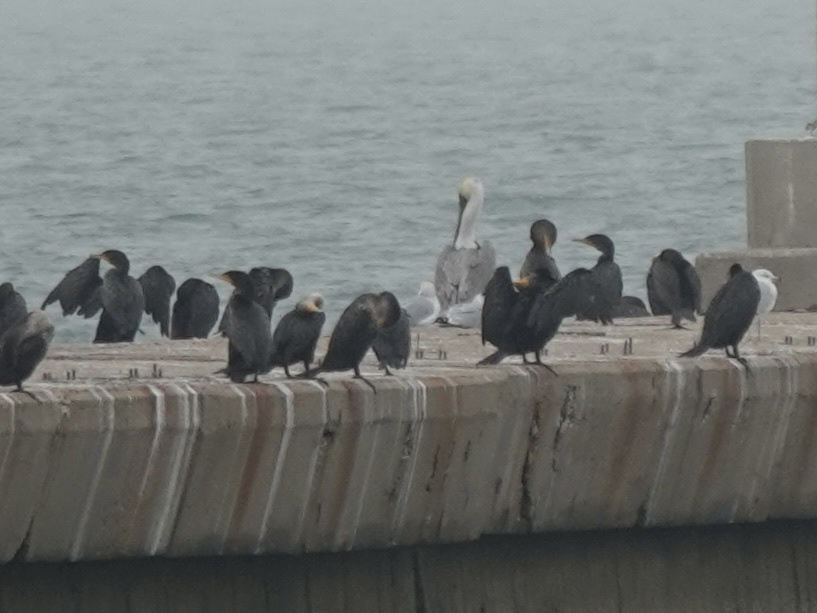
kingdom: Animalia
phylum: Chordata
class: Aves
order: Suliformes
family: Phalacrocoracidae
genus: Phalacrocorax
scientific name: Phalacrocorax auritus
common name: Double-crested cormorant
